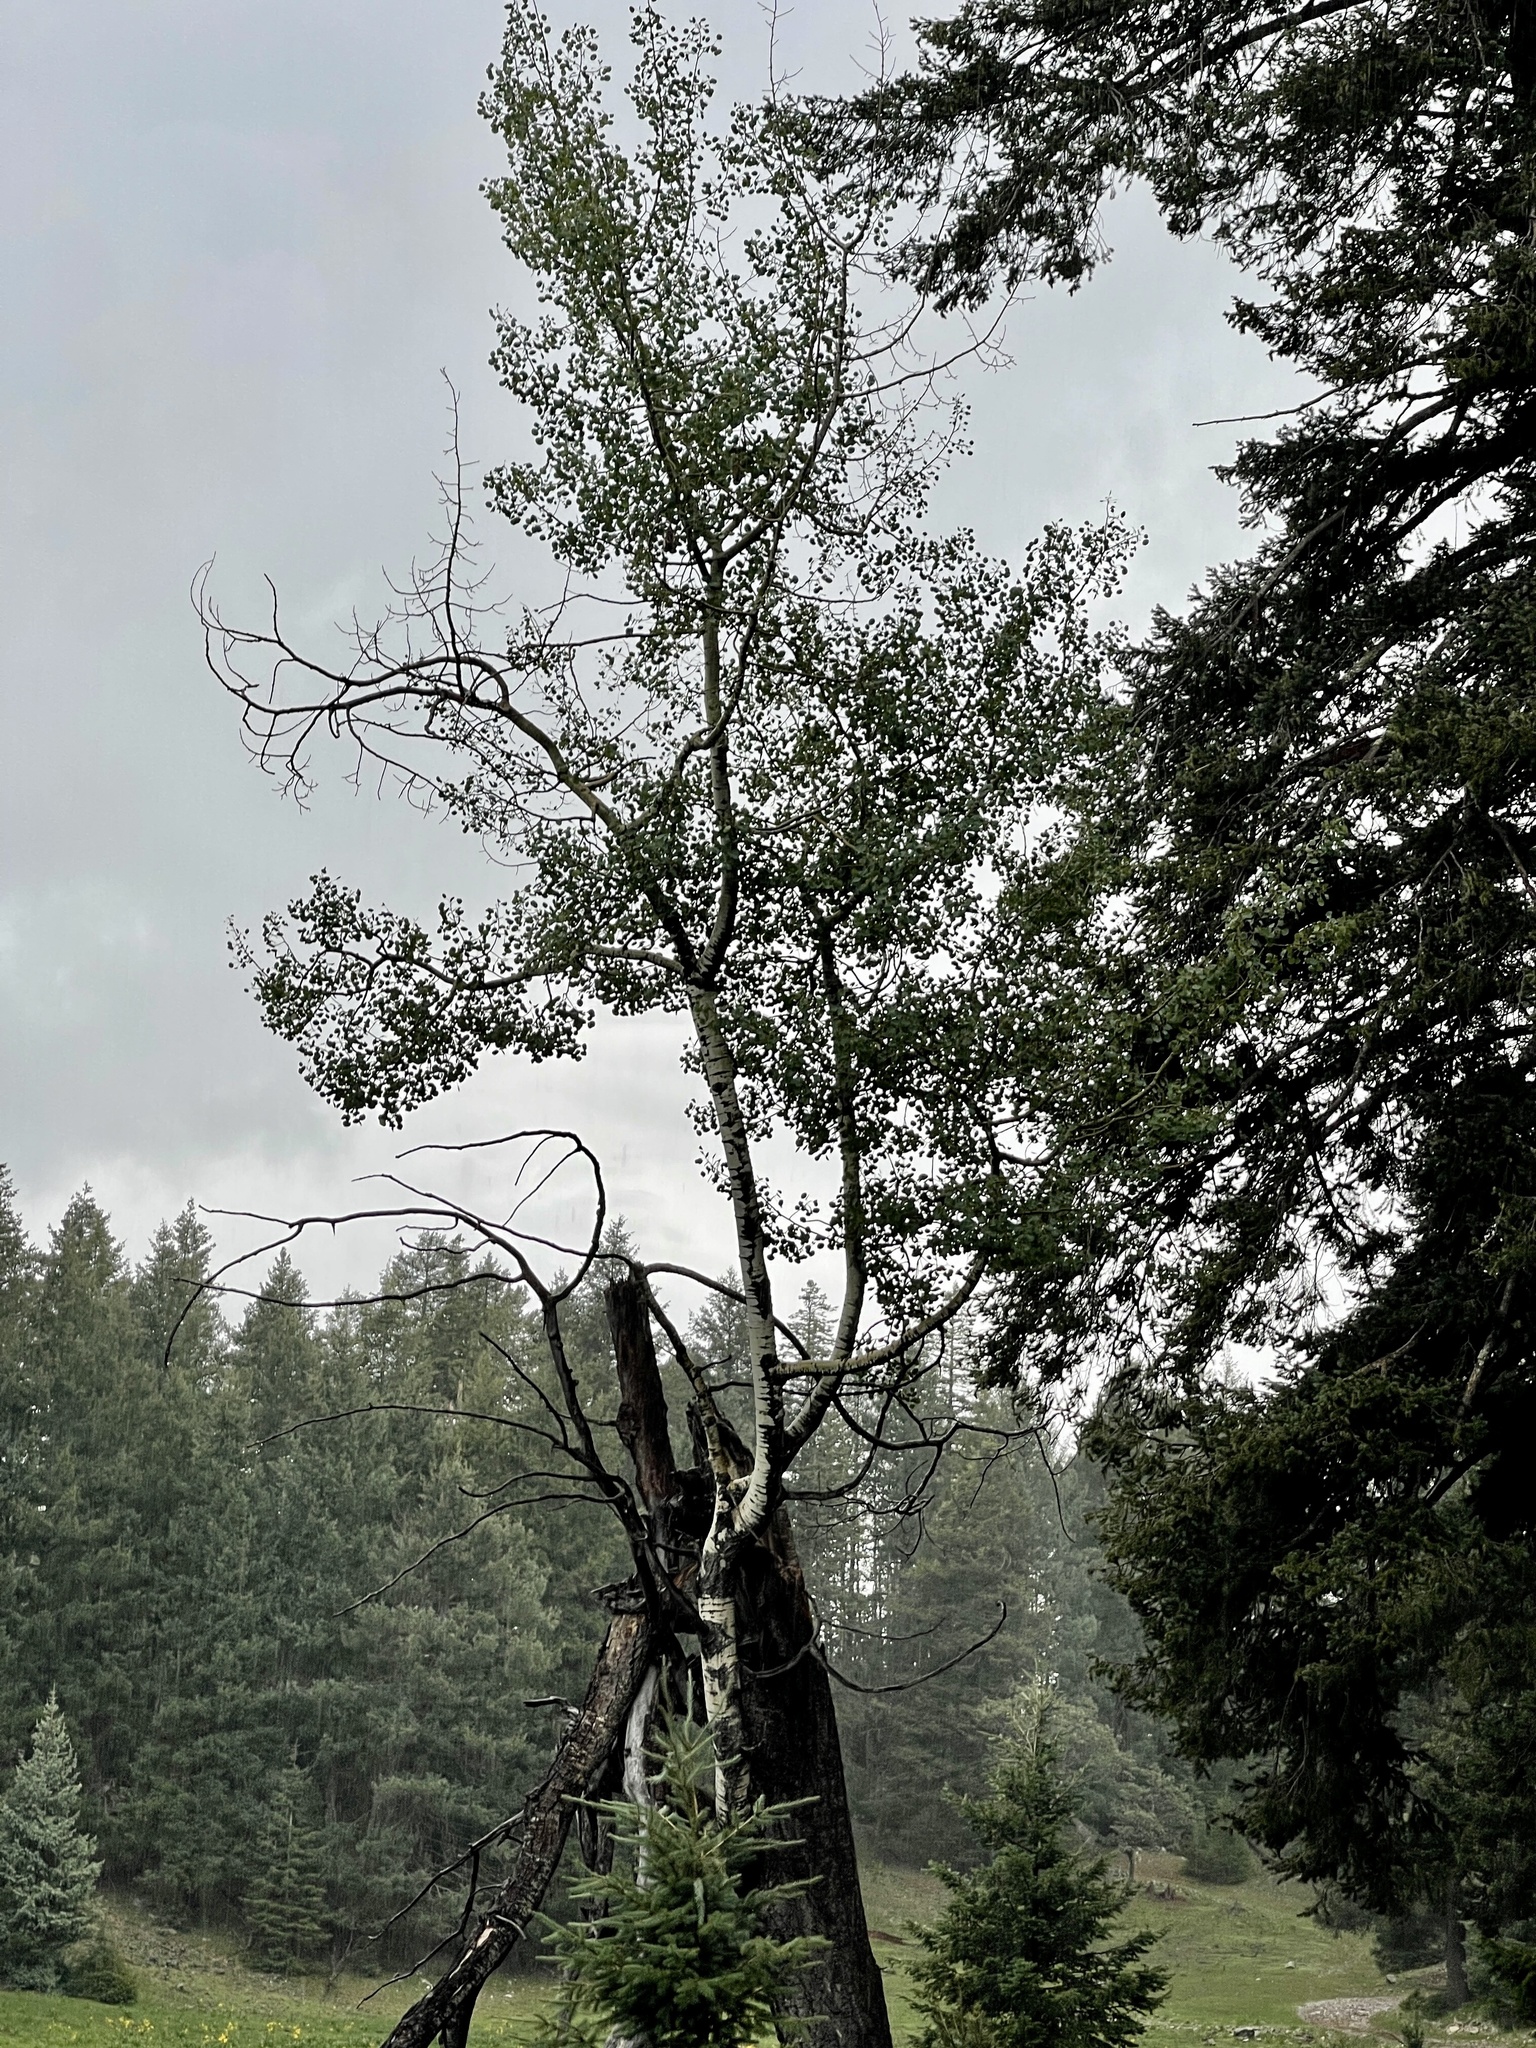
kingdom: Plantae
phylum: Tracheophyta
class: Magnoliopsida
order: Malpighiales
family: Salicaceae
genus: Populus
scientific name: Populus tremuloides
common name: Quaking aspen
